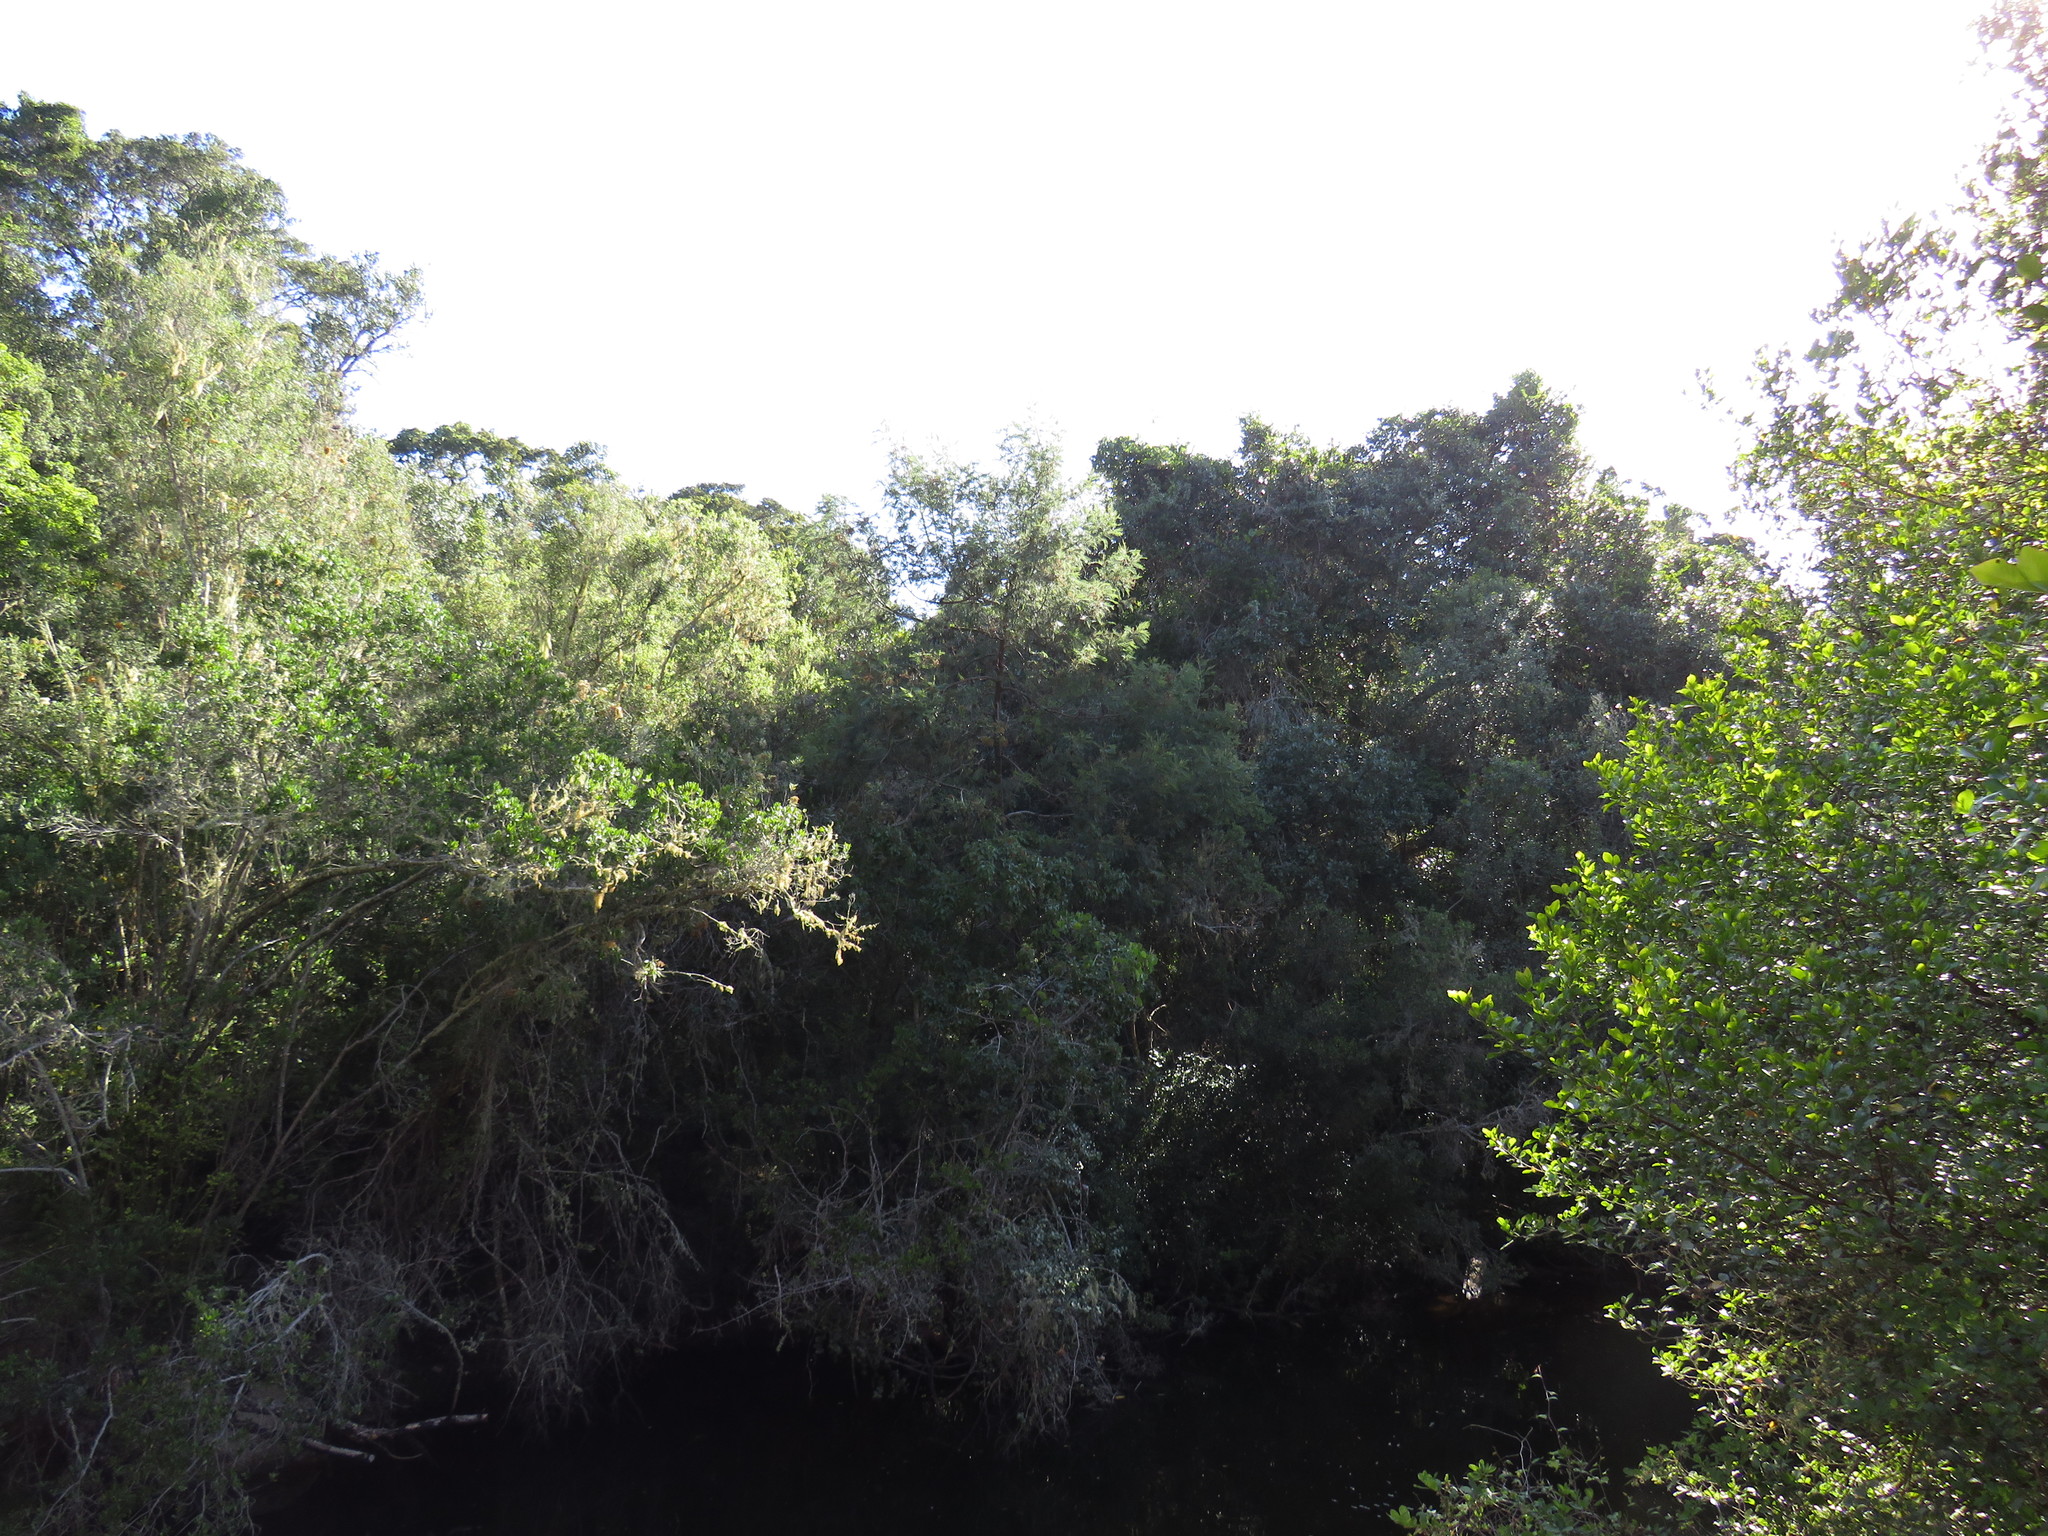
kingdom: Animalia
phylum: Arthropoda
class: Insecta
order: Diptera
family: Cecidomyiidae
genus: Dasineura
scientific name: Dasineura rubiformis
